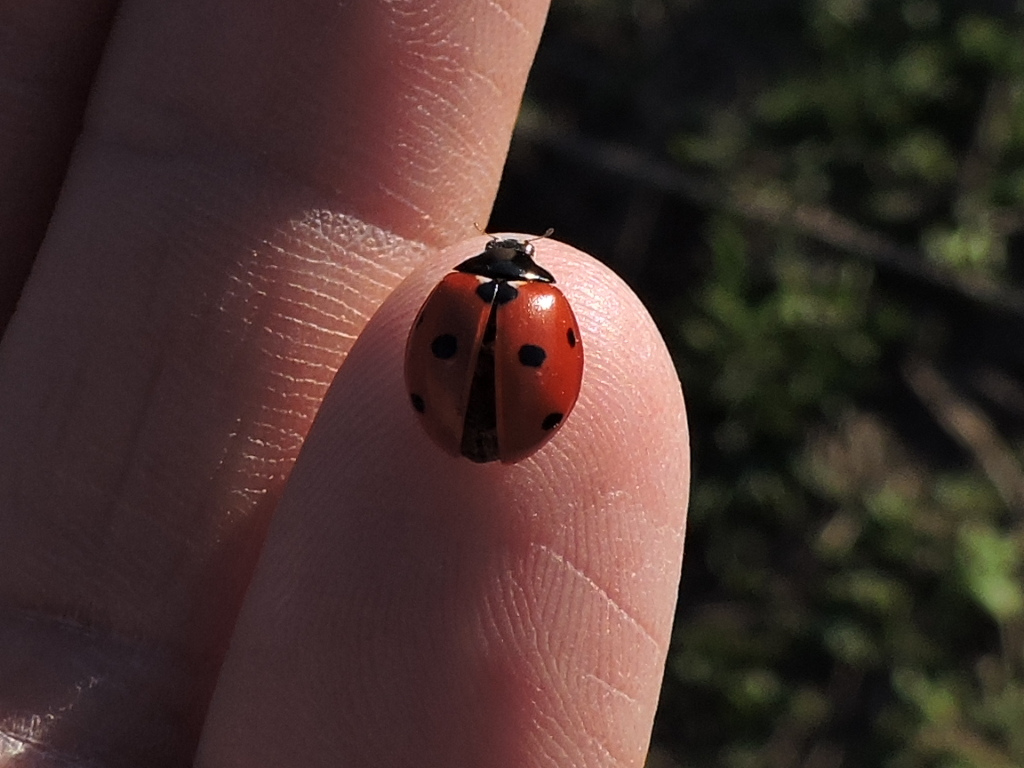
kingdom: Animalia
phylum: Arthropoda
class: Insecta
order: Coleoptera
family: Coccinellidae
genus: Coccinella
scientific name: Coccinella septempunctata
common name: Sevenspotted lady beetle
